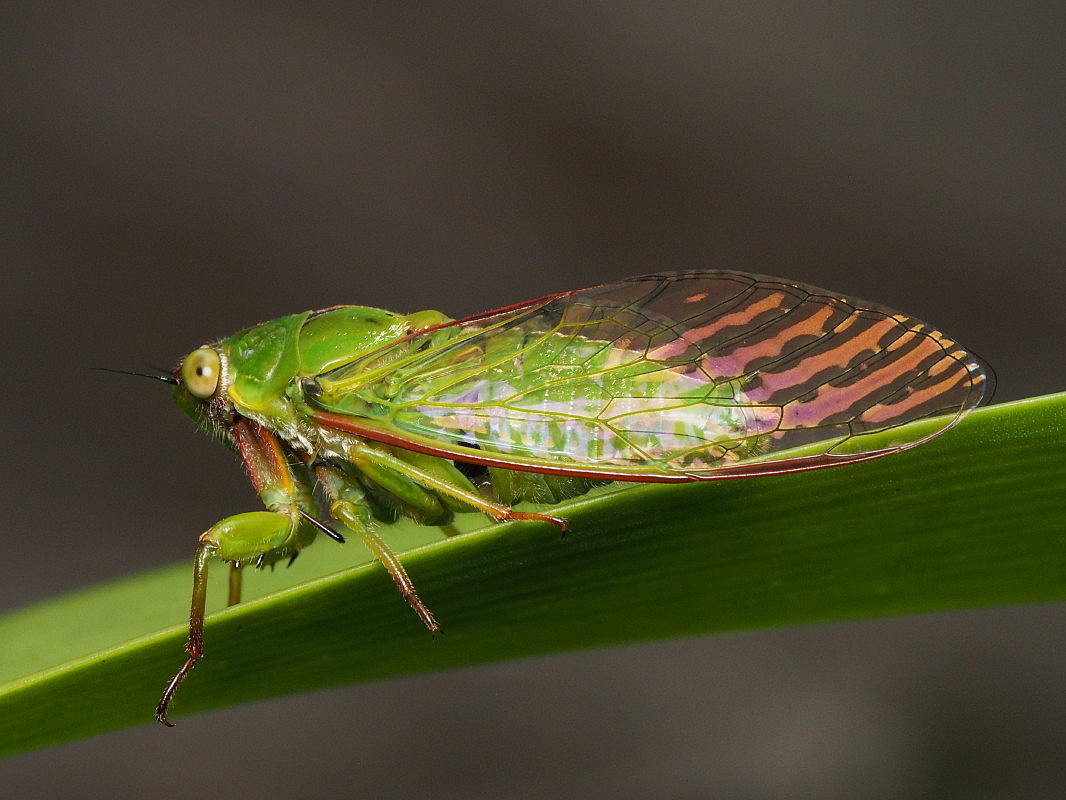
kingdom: Animalia
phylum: Arthropoda
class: Insecta
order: Hemiptera
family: Cicadidae
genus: Kikihia
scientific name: Kikihia cutora
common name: Northern snoring cicada
